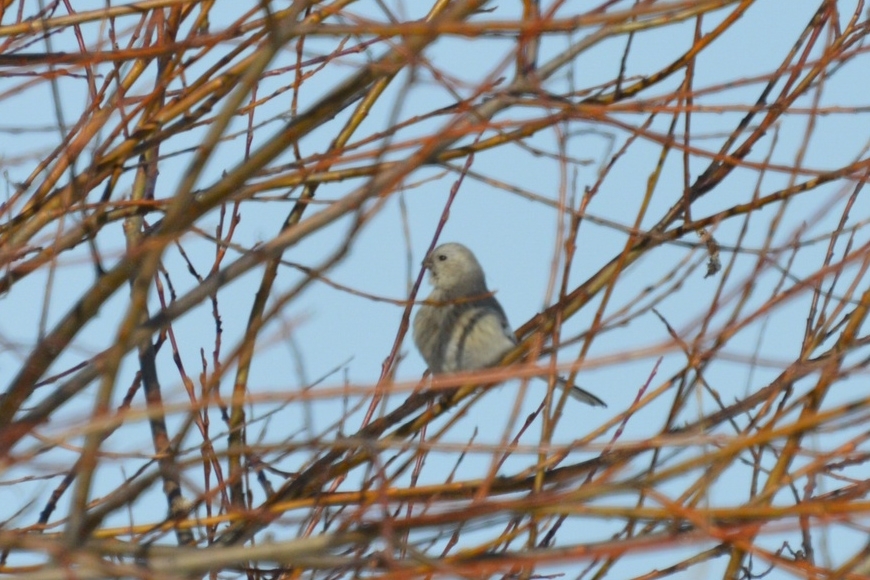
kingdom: Animalia
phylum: Chordata
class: Aves
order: Passeriformes
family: Fringillidae
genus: Carpodacus
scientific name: Carpodacus sibiricus
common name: Long-tailed rosefinch
